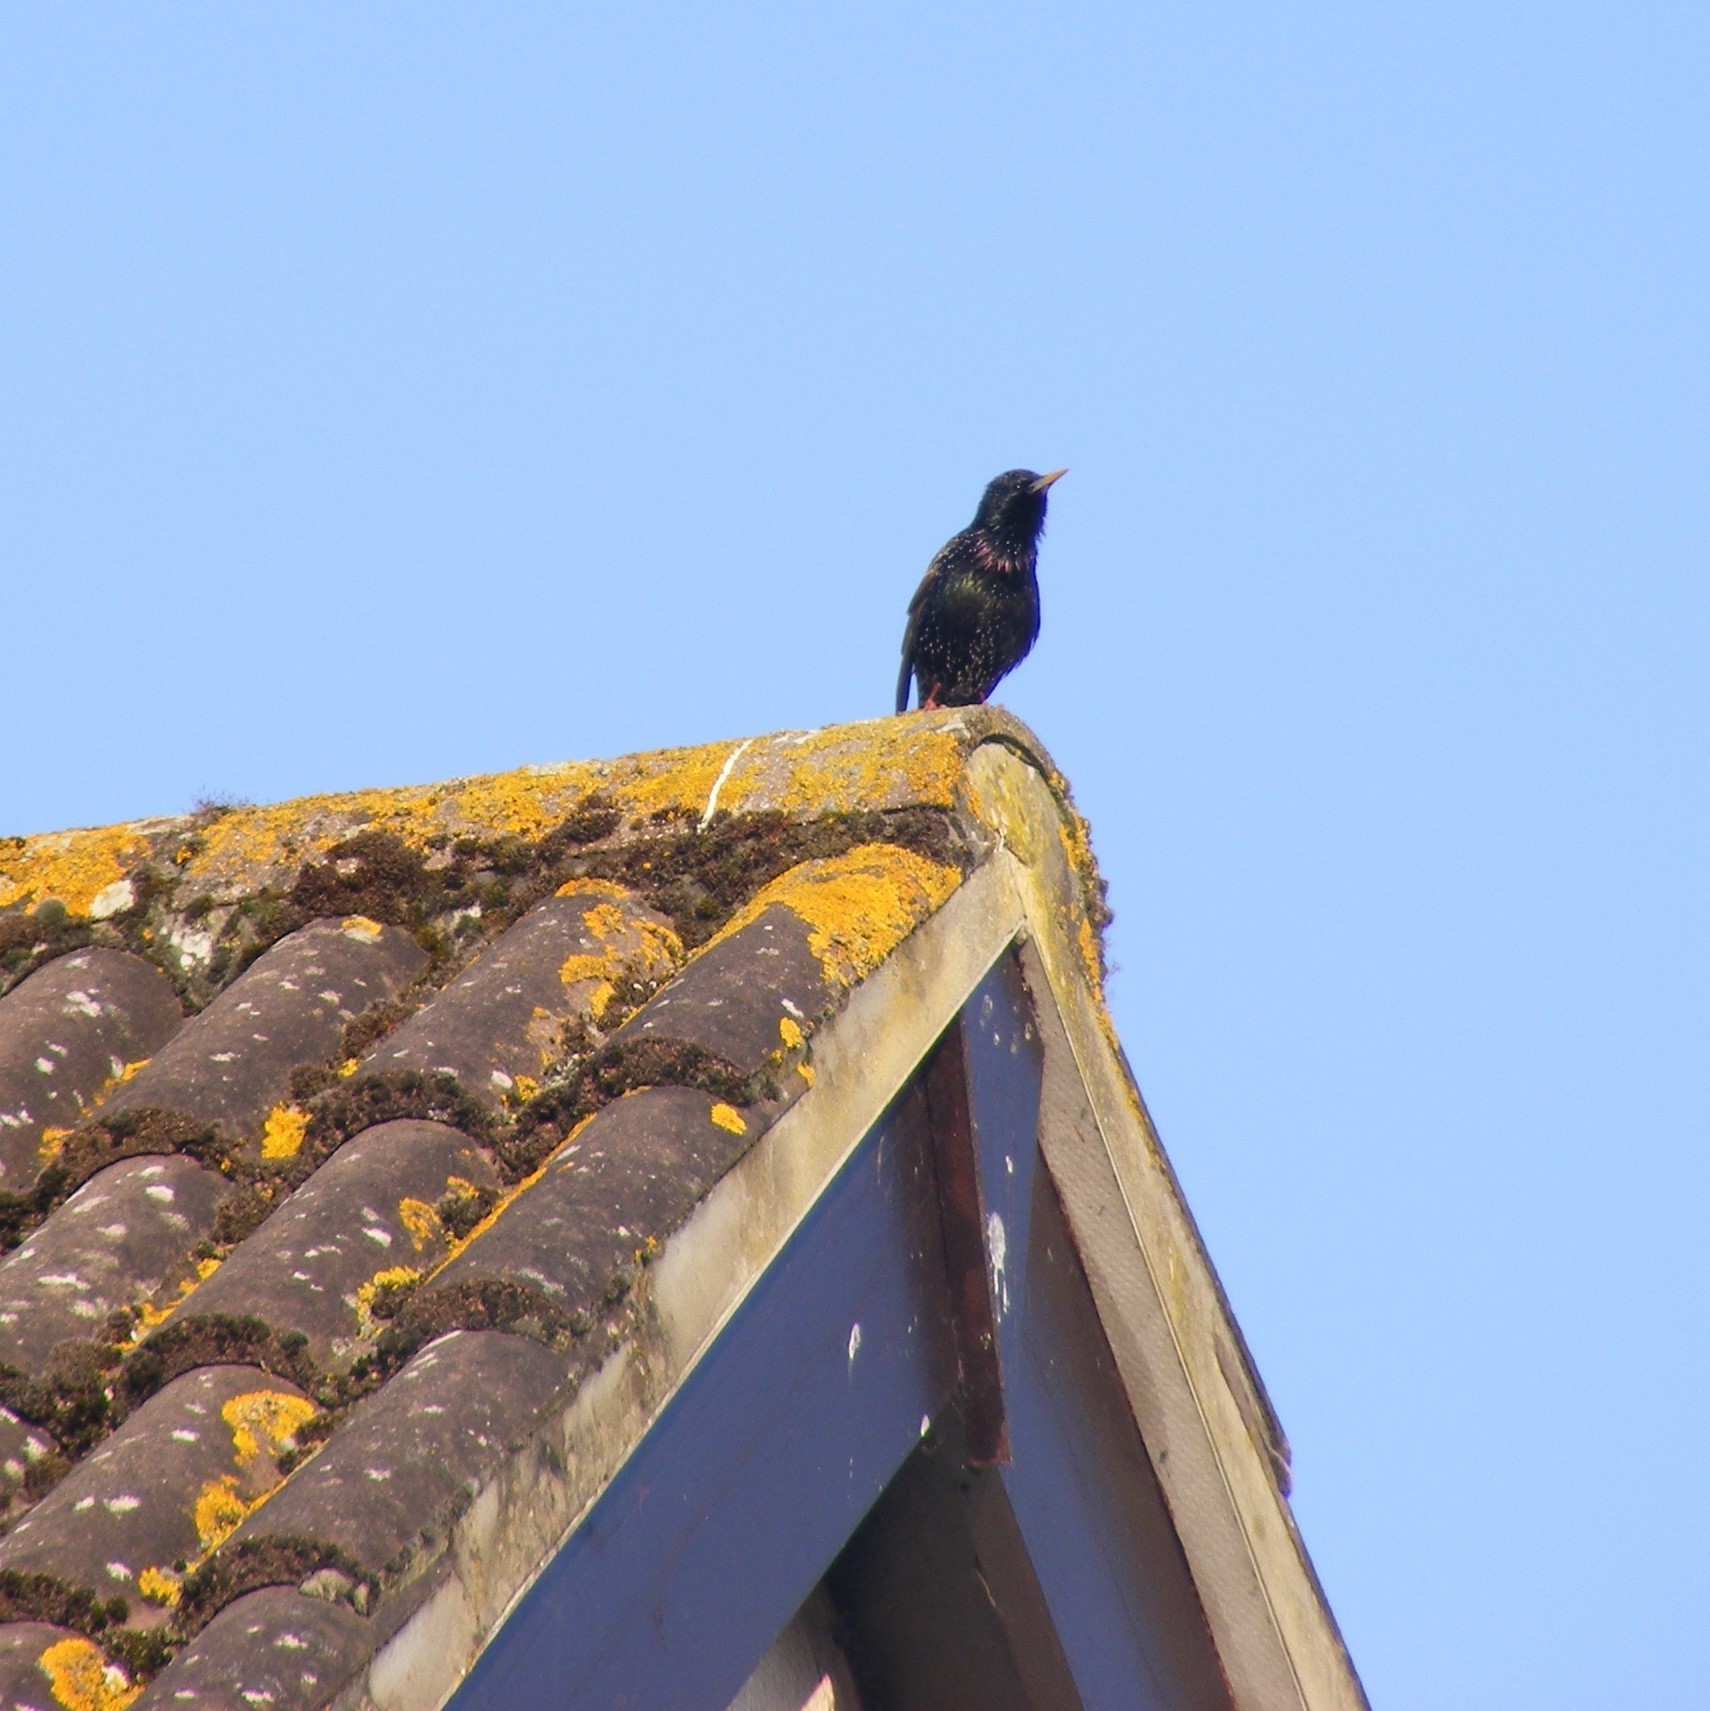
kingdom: Animalia
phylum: Chordata
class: Aves
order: Passeriformes
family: Sturnidae
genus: Sturnus
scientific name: Sturnus vulgaris
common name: Common starling
